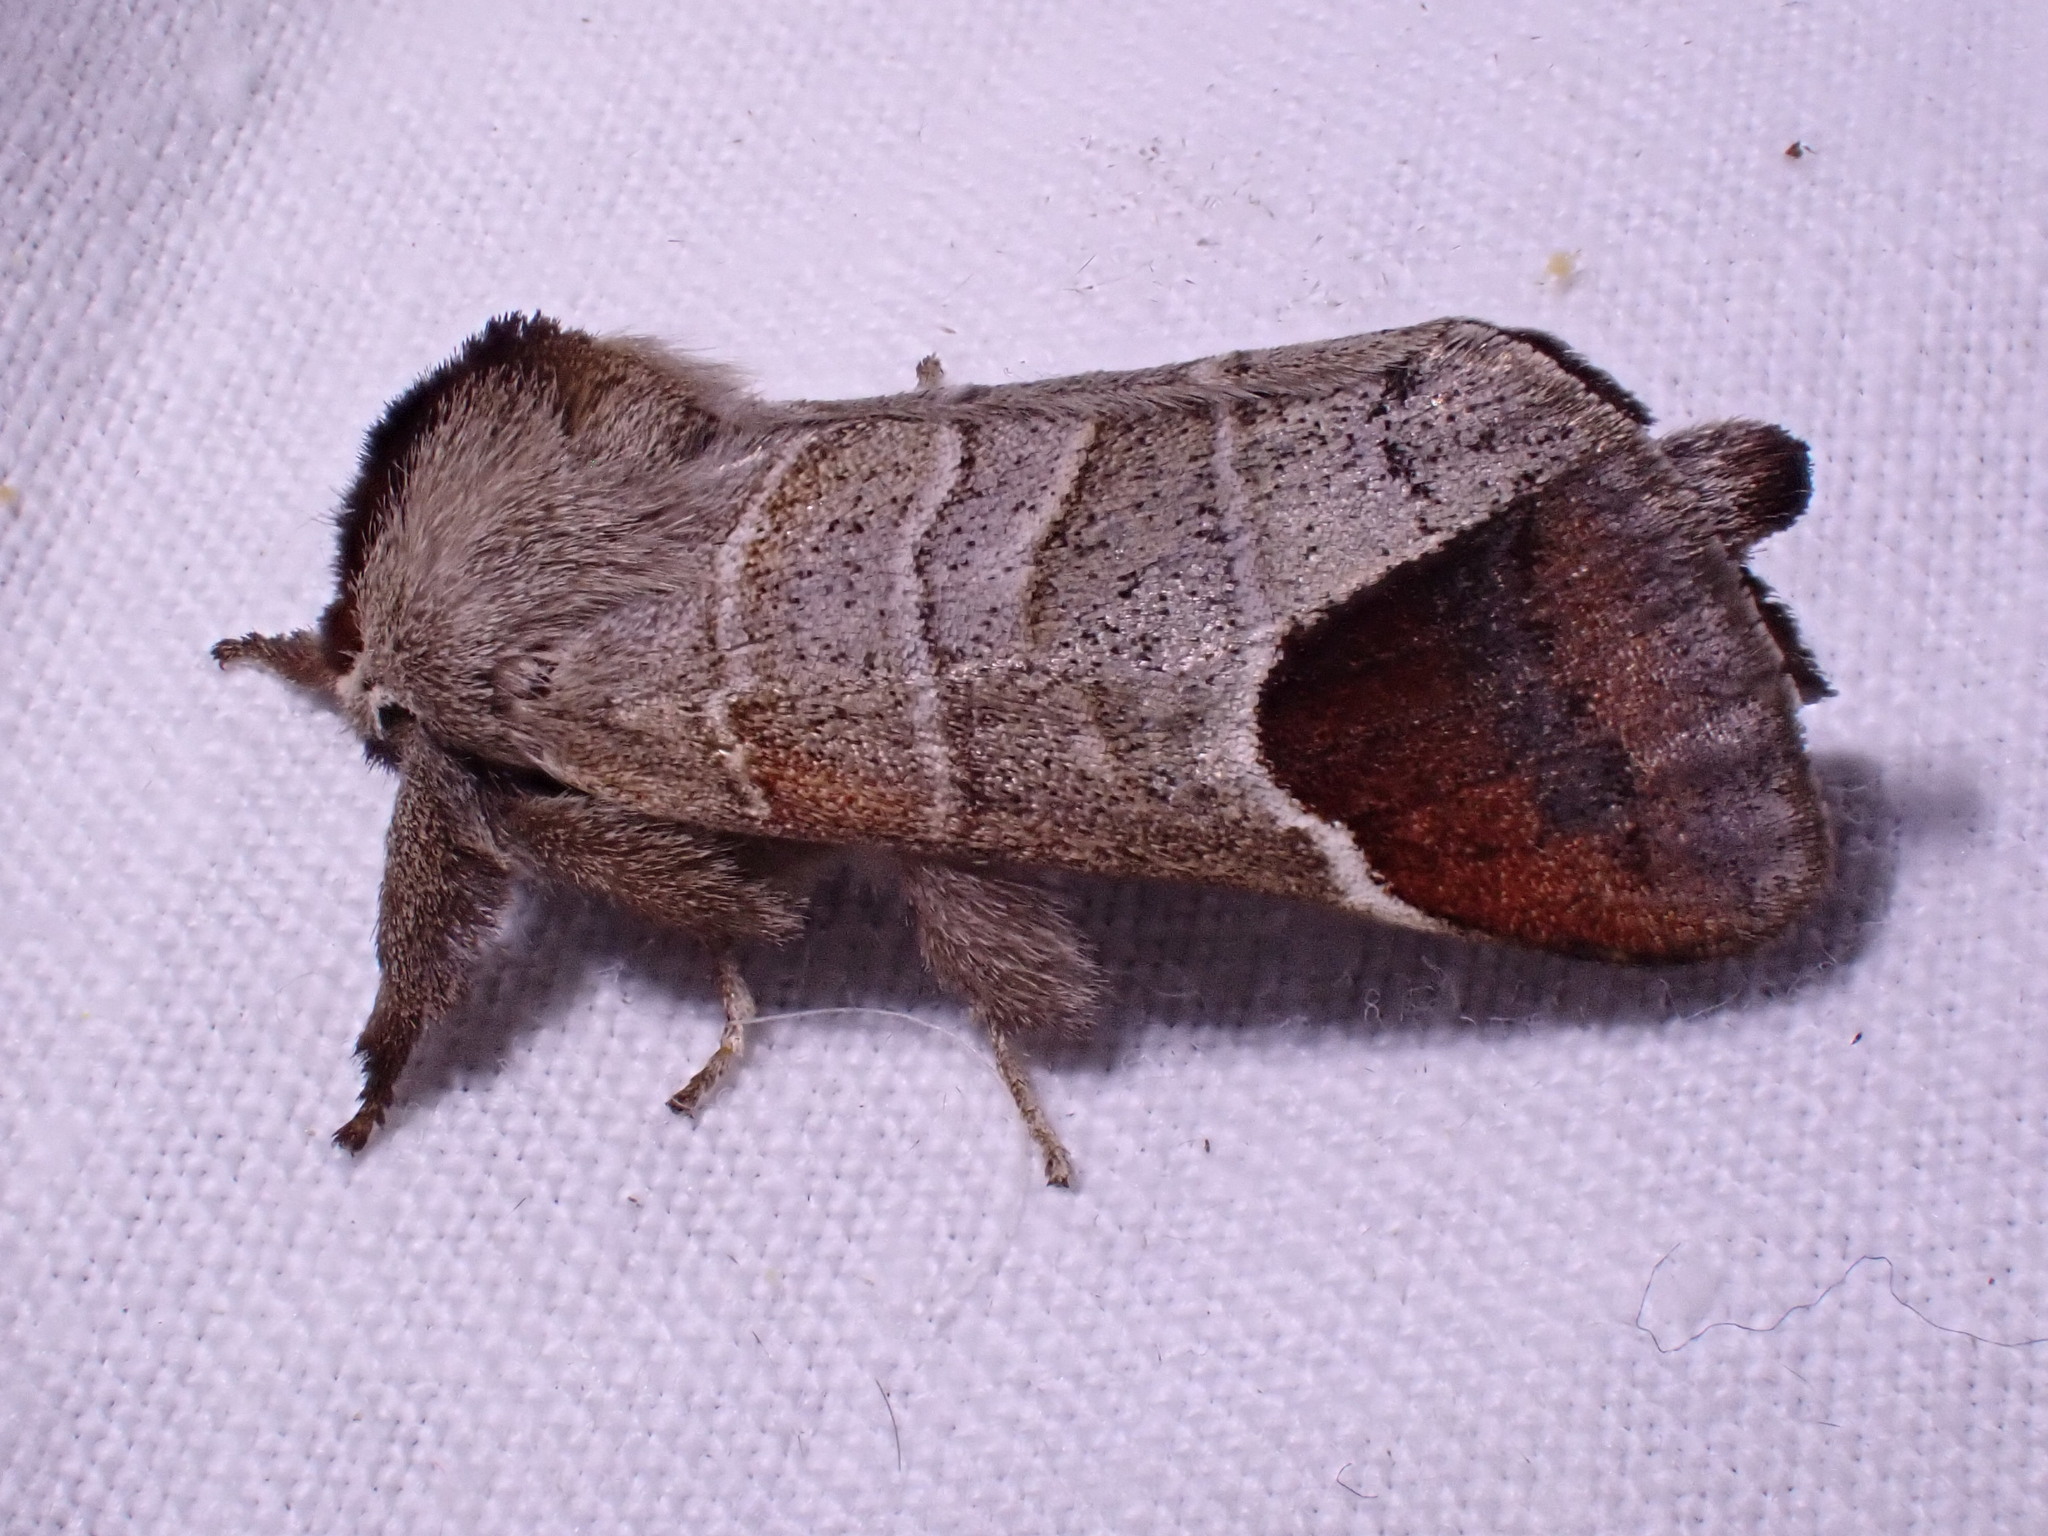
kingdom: Animalia
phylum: Arthropoda
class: Insecta
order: Lepidoptera
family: Notodontidae
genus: Clostera
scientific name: Clostera curtula
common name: Chocolate-tip
